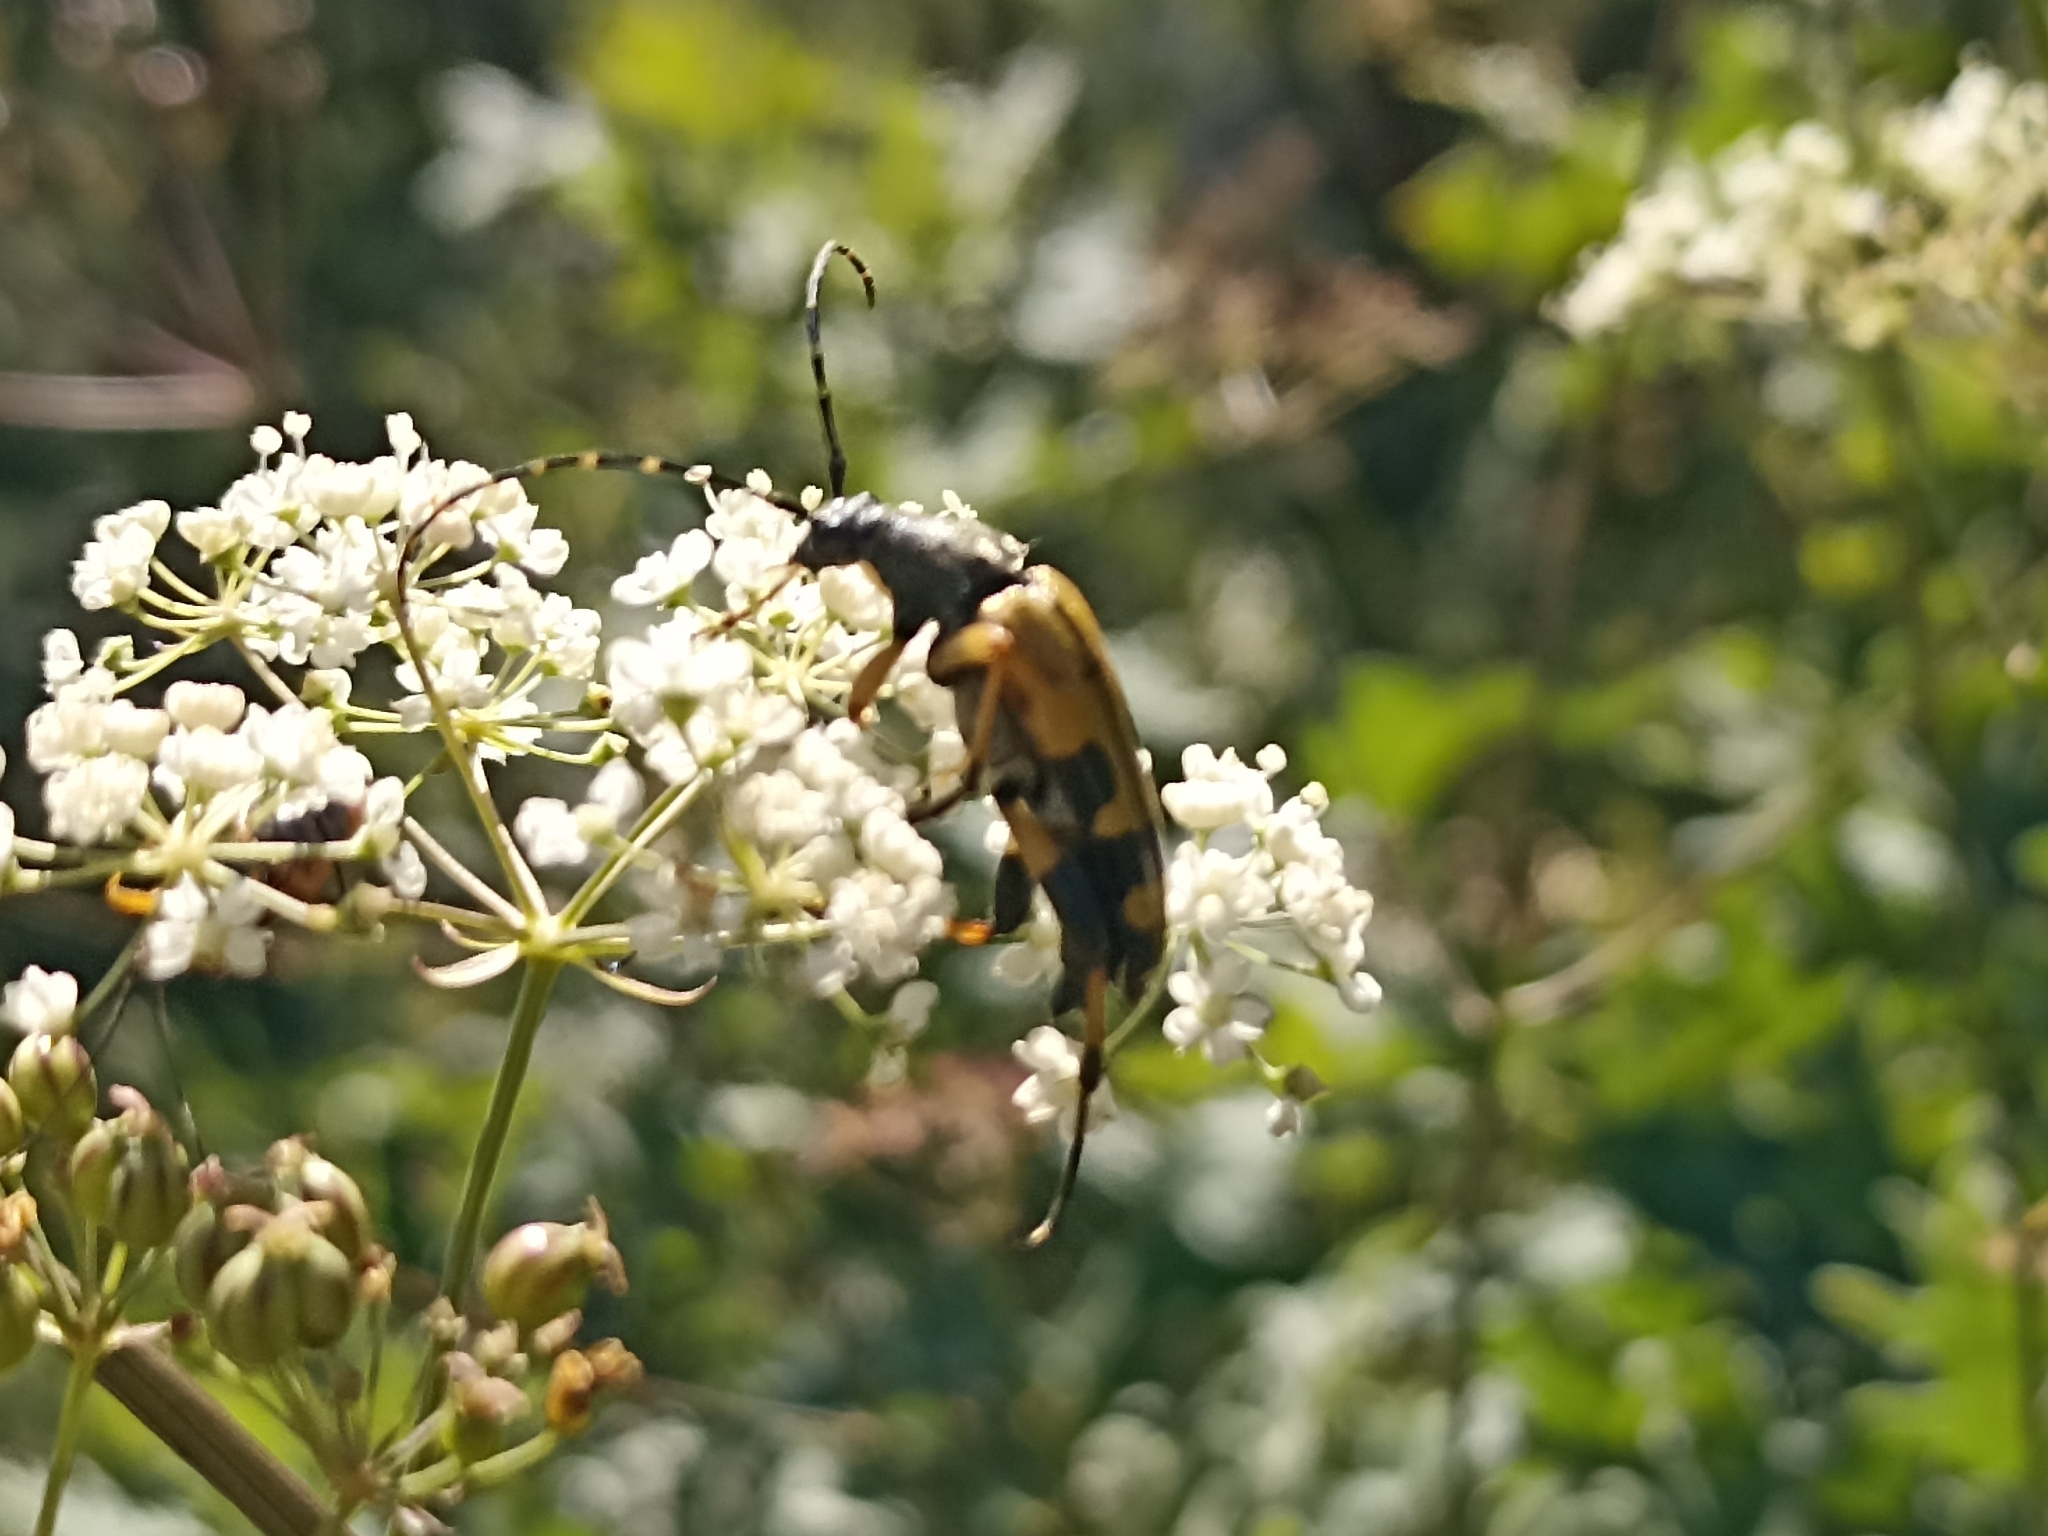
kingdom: Animalia
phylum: Arthropoda
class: Insecta
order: Coleoptera
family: Cerambycidae
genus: Rutpela
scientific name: Rutpela maculata
